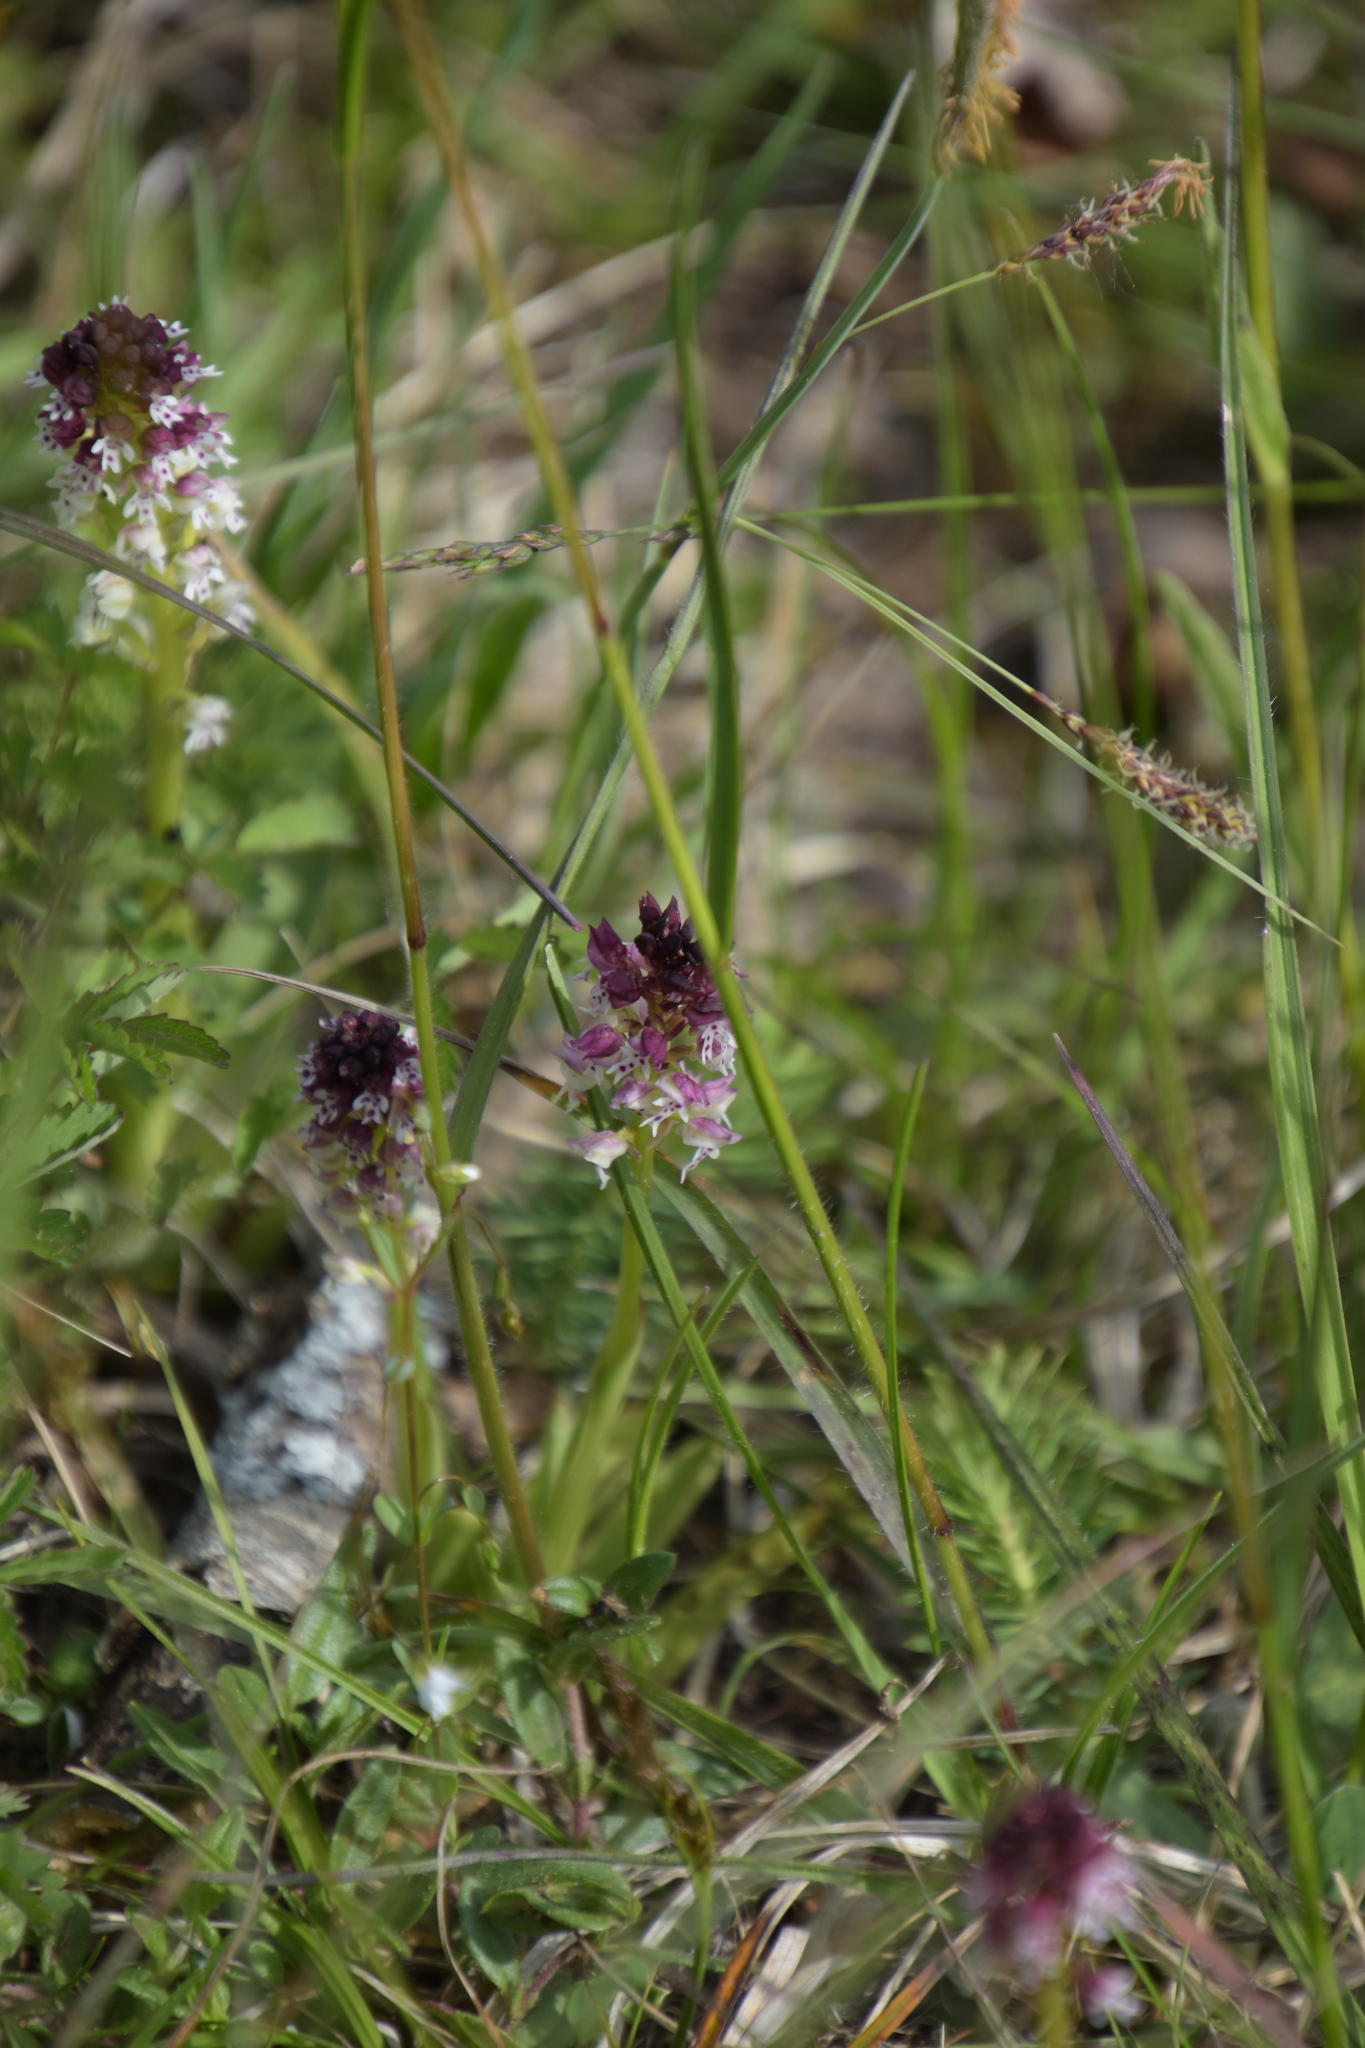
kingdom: Plantae
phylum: Tracheophyta
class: Liliopsida
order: Asparagales
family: Orchidaceae
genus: Neotinea
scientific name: Neotinea ustulata
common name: Burnt orchid
